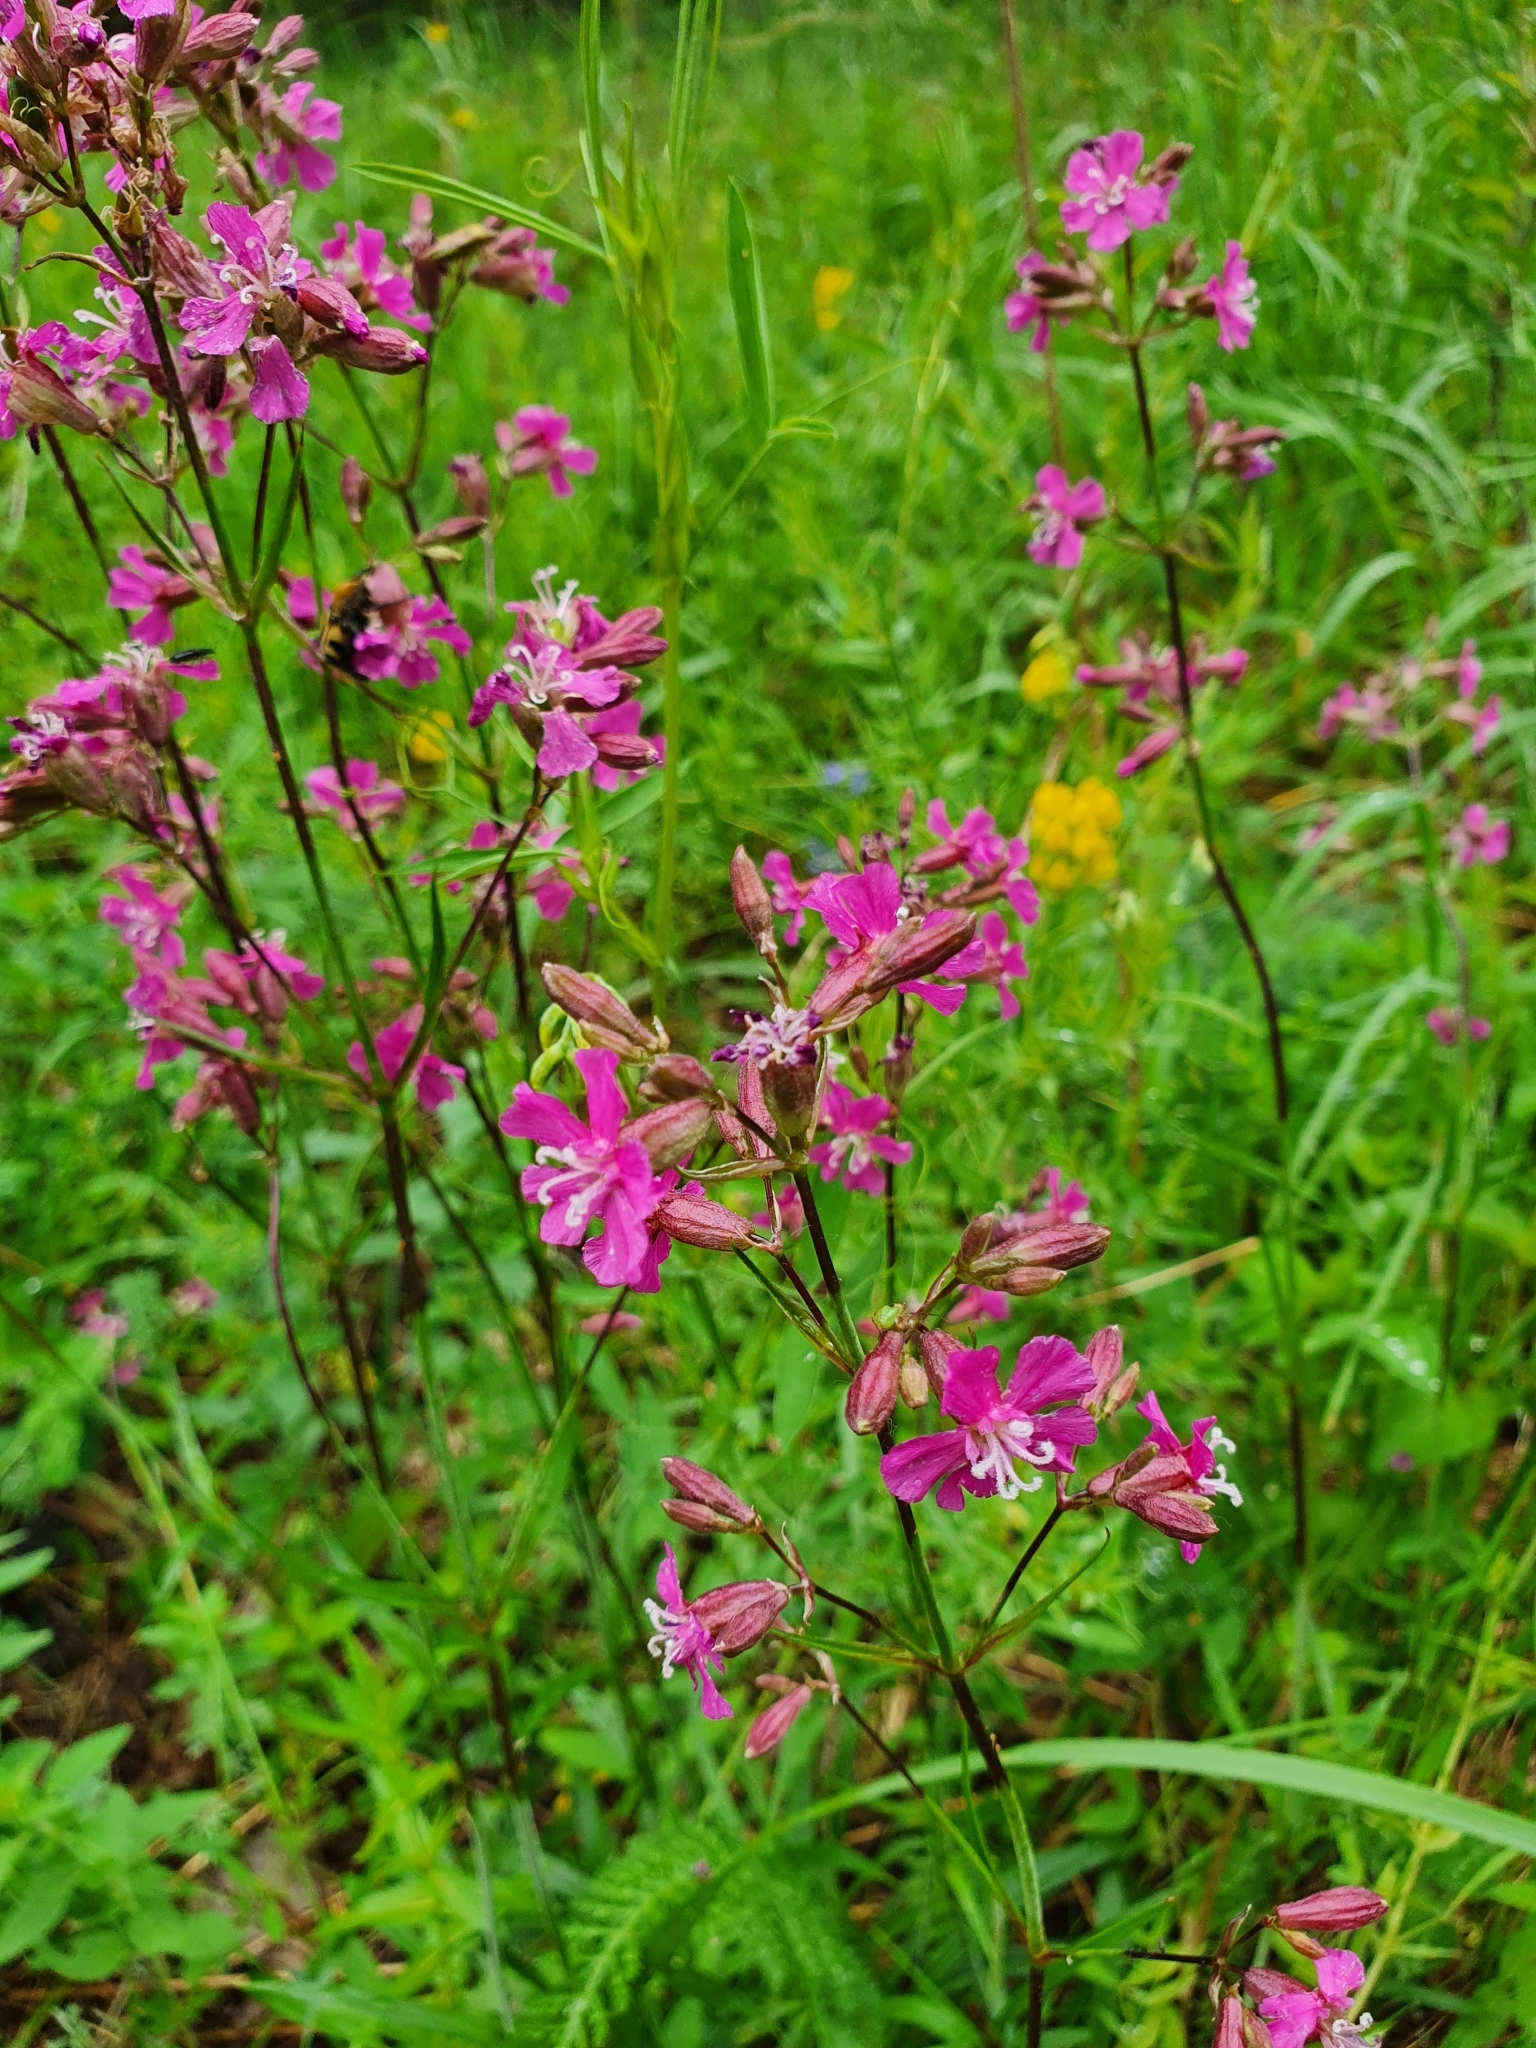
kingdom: Plantae
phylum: Tracheophyta
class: Magnoliopsida
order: Caryophyllales
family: Caryophyllaceae
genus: Viscaria
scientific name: Viscaria vulgaris
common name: Clammy campion
